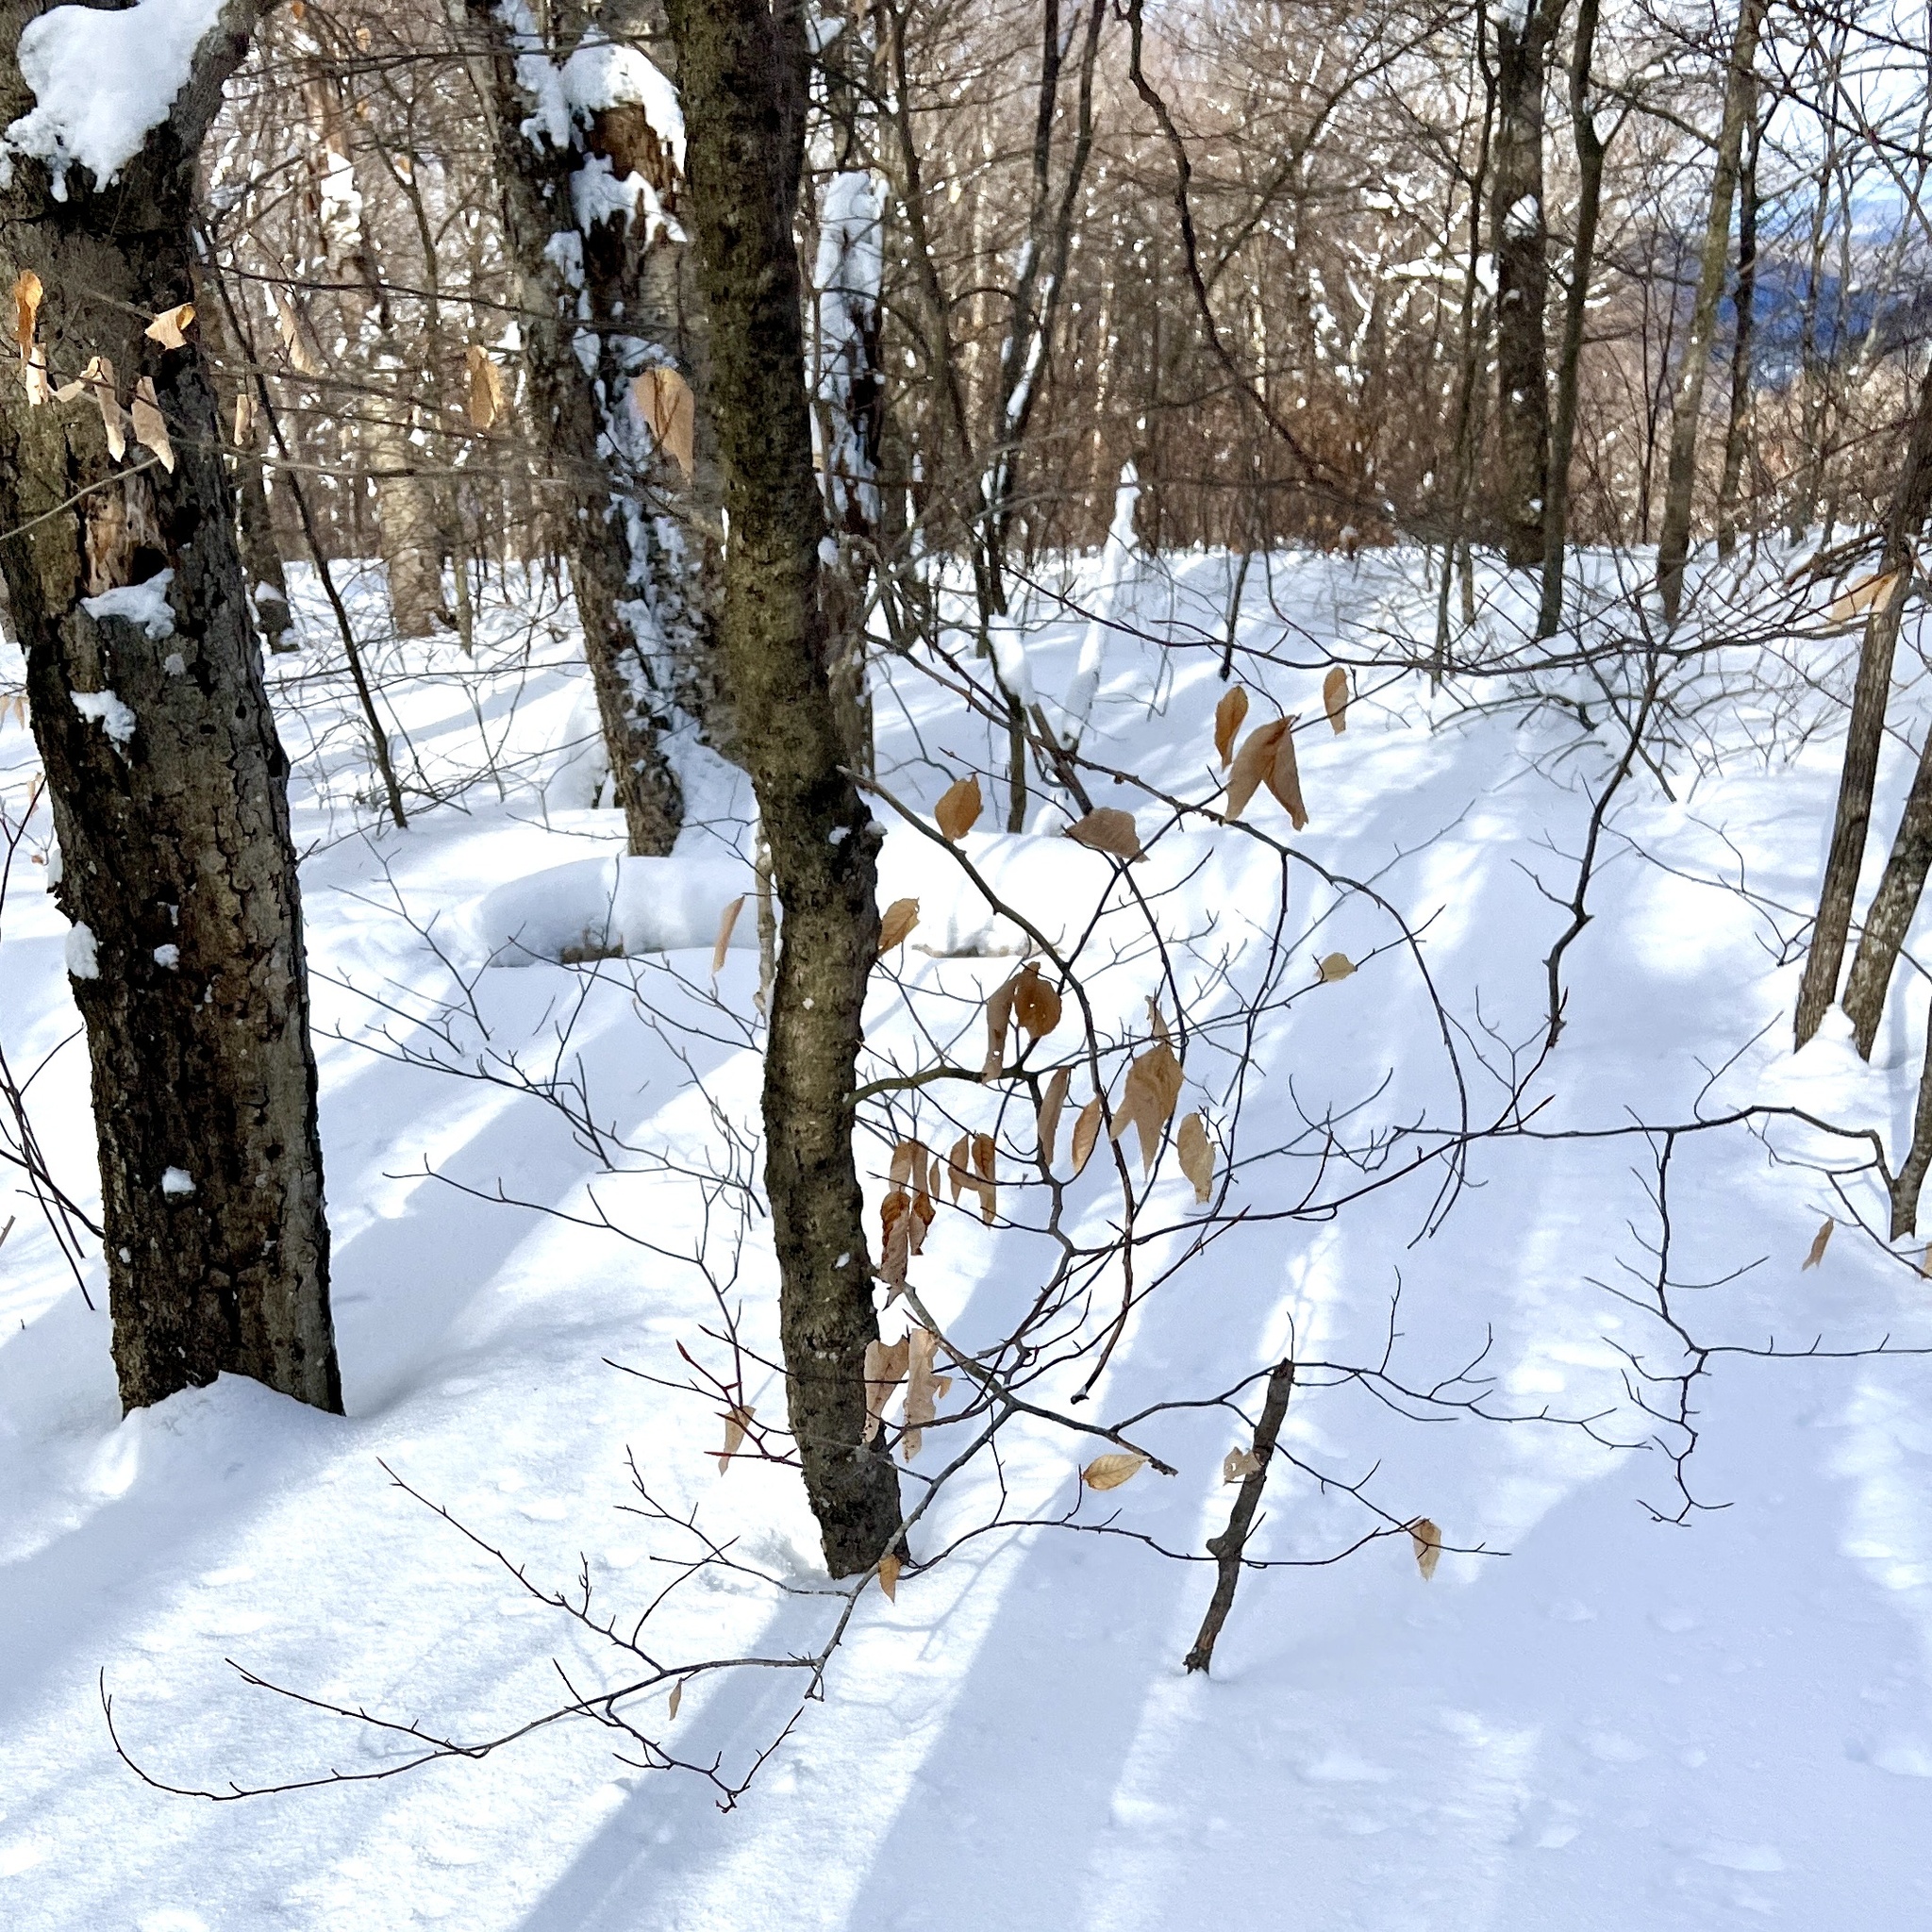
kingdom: Plantae
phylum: Tracheophyta
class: Magnoliopsida
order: Fagales
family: Fagaceae
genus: Fagus
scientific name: Fagus grandifolia
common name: American beech
